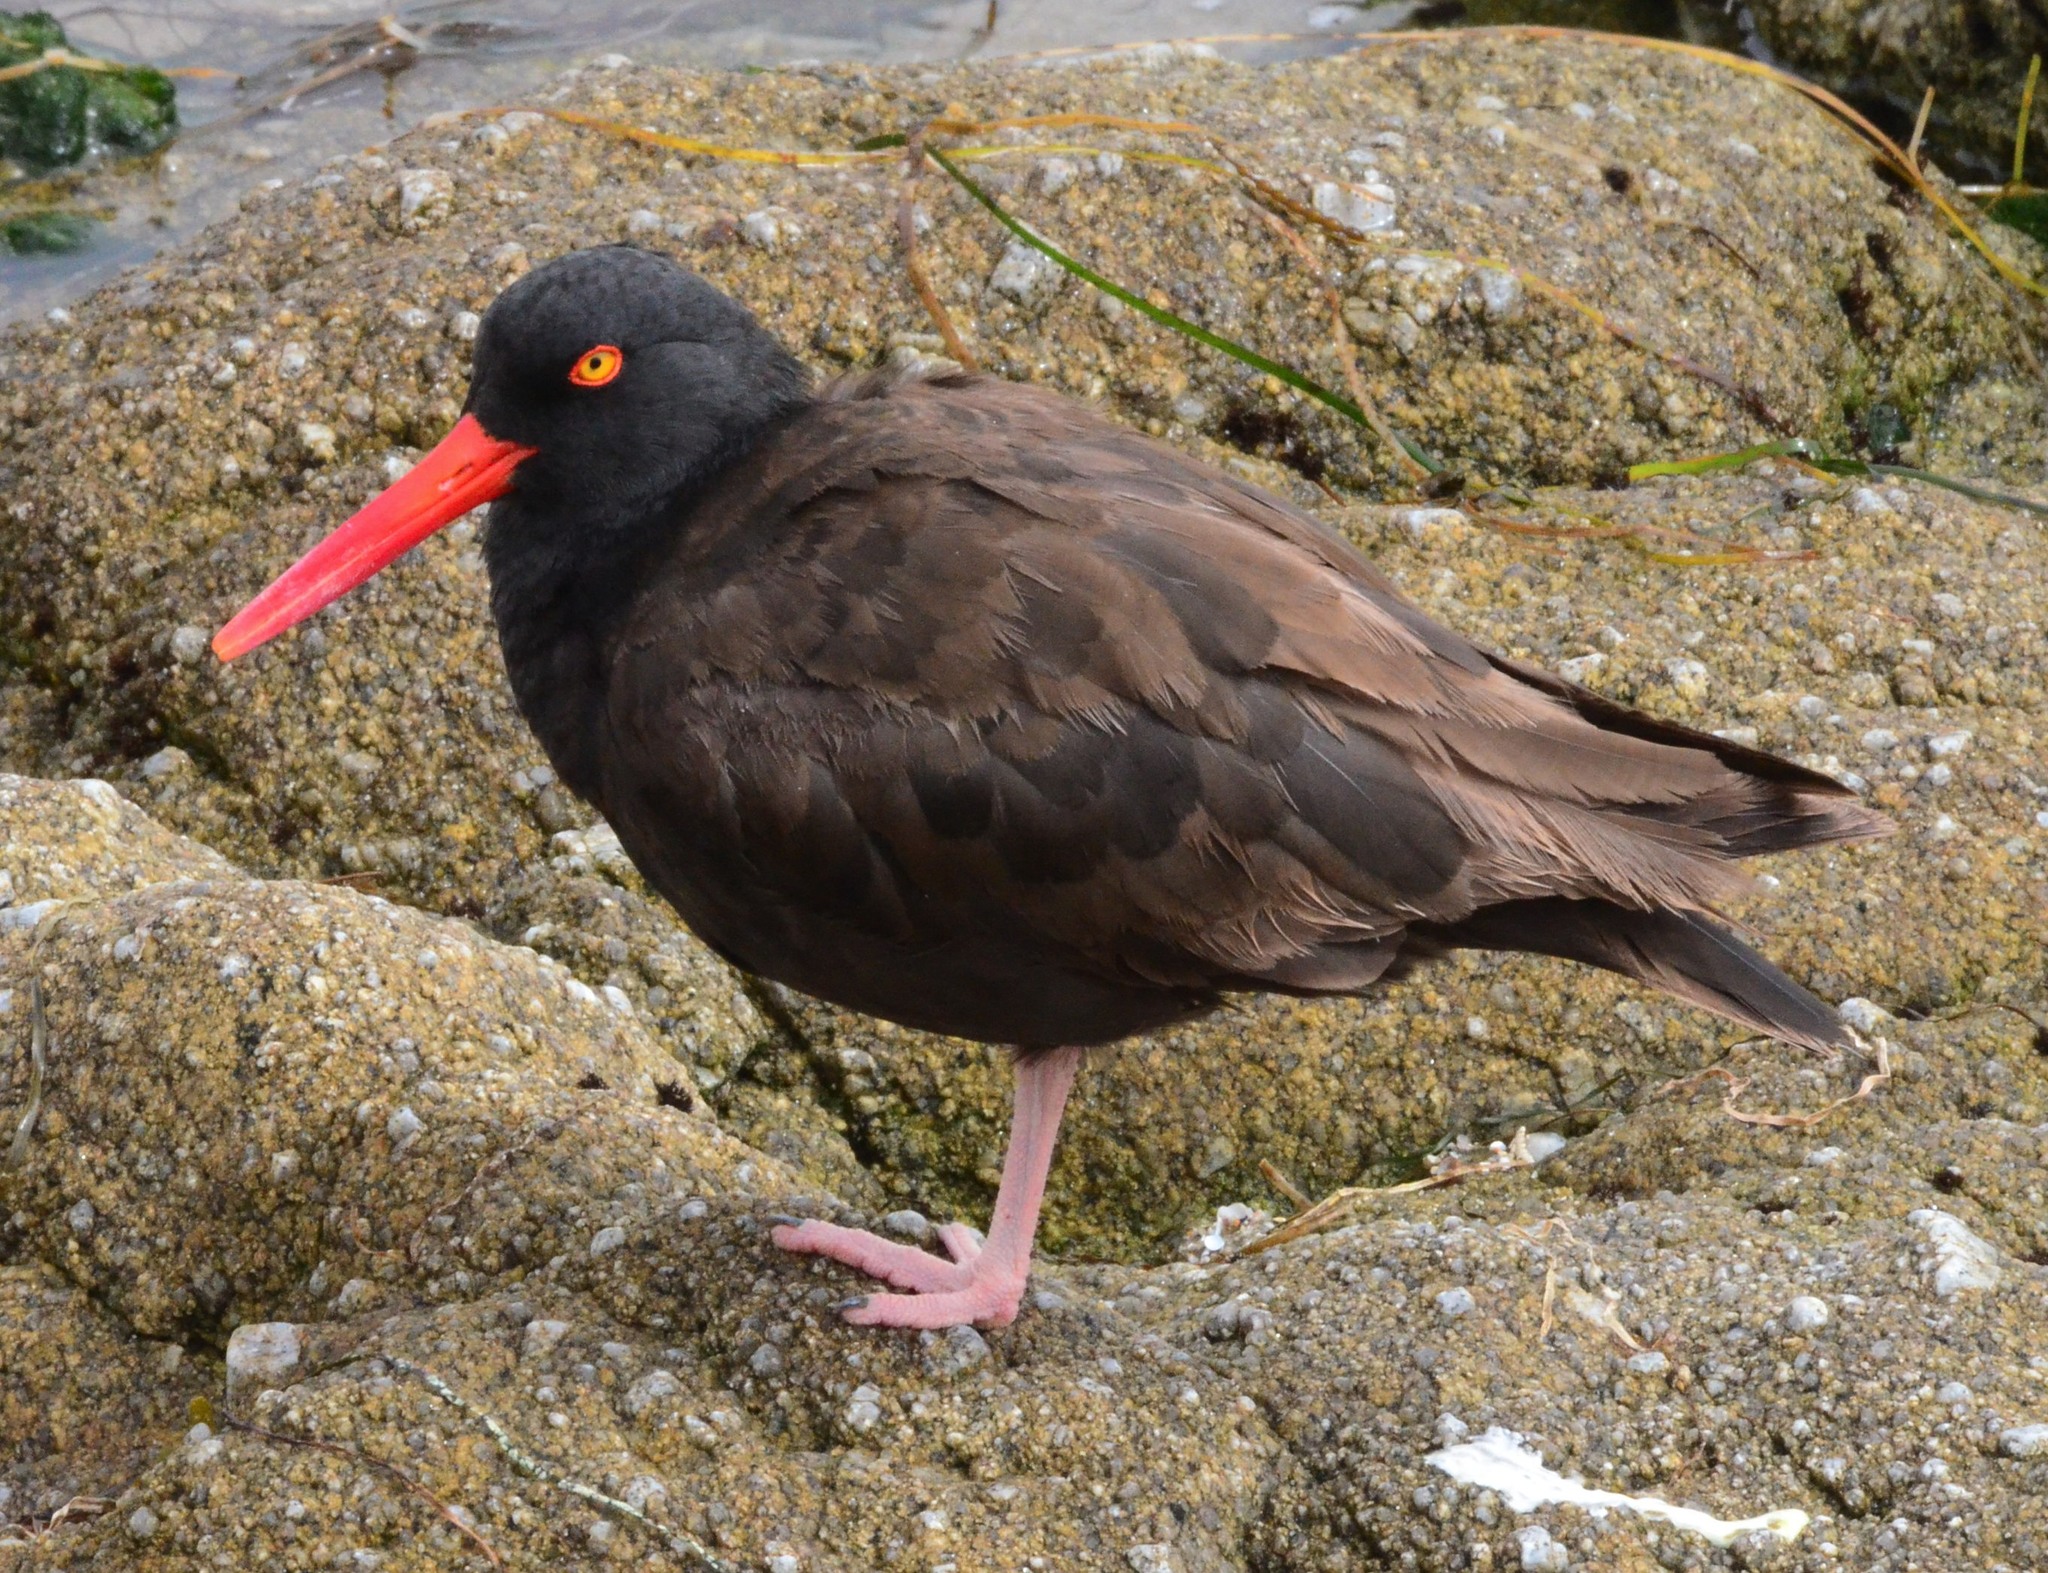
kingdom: Animalia
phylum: Chordata
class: Aves
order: Charadriiformes
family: Haematopodidae
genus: Haematopus
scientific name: Haematopus bachmani
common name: Black oystercatcher
